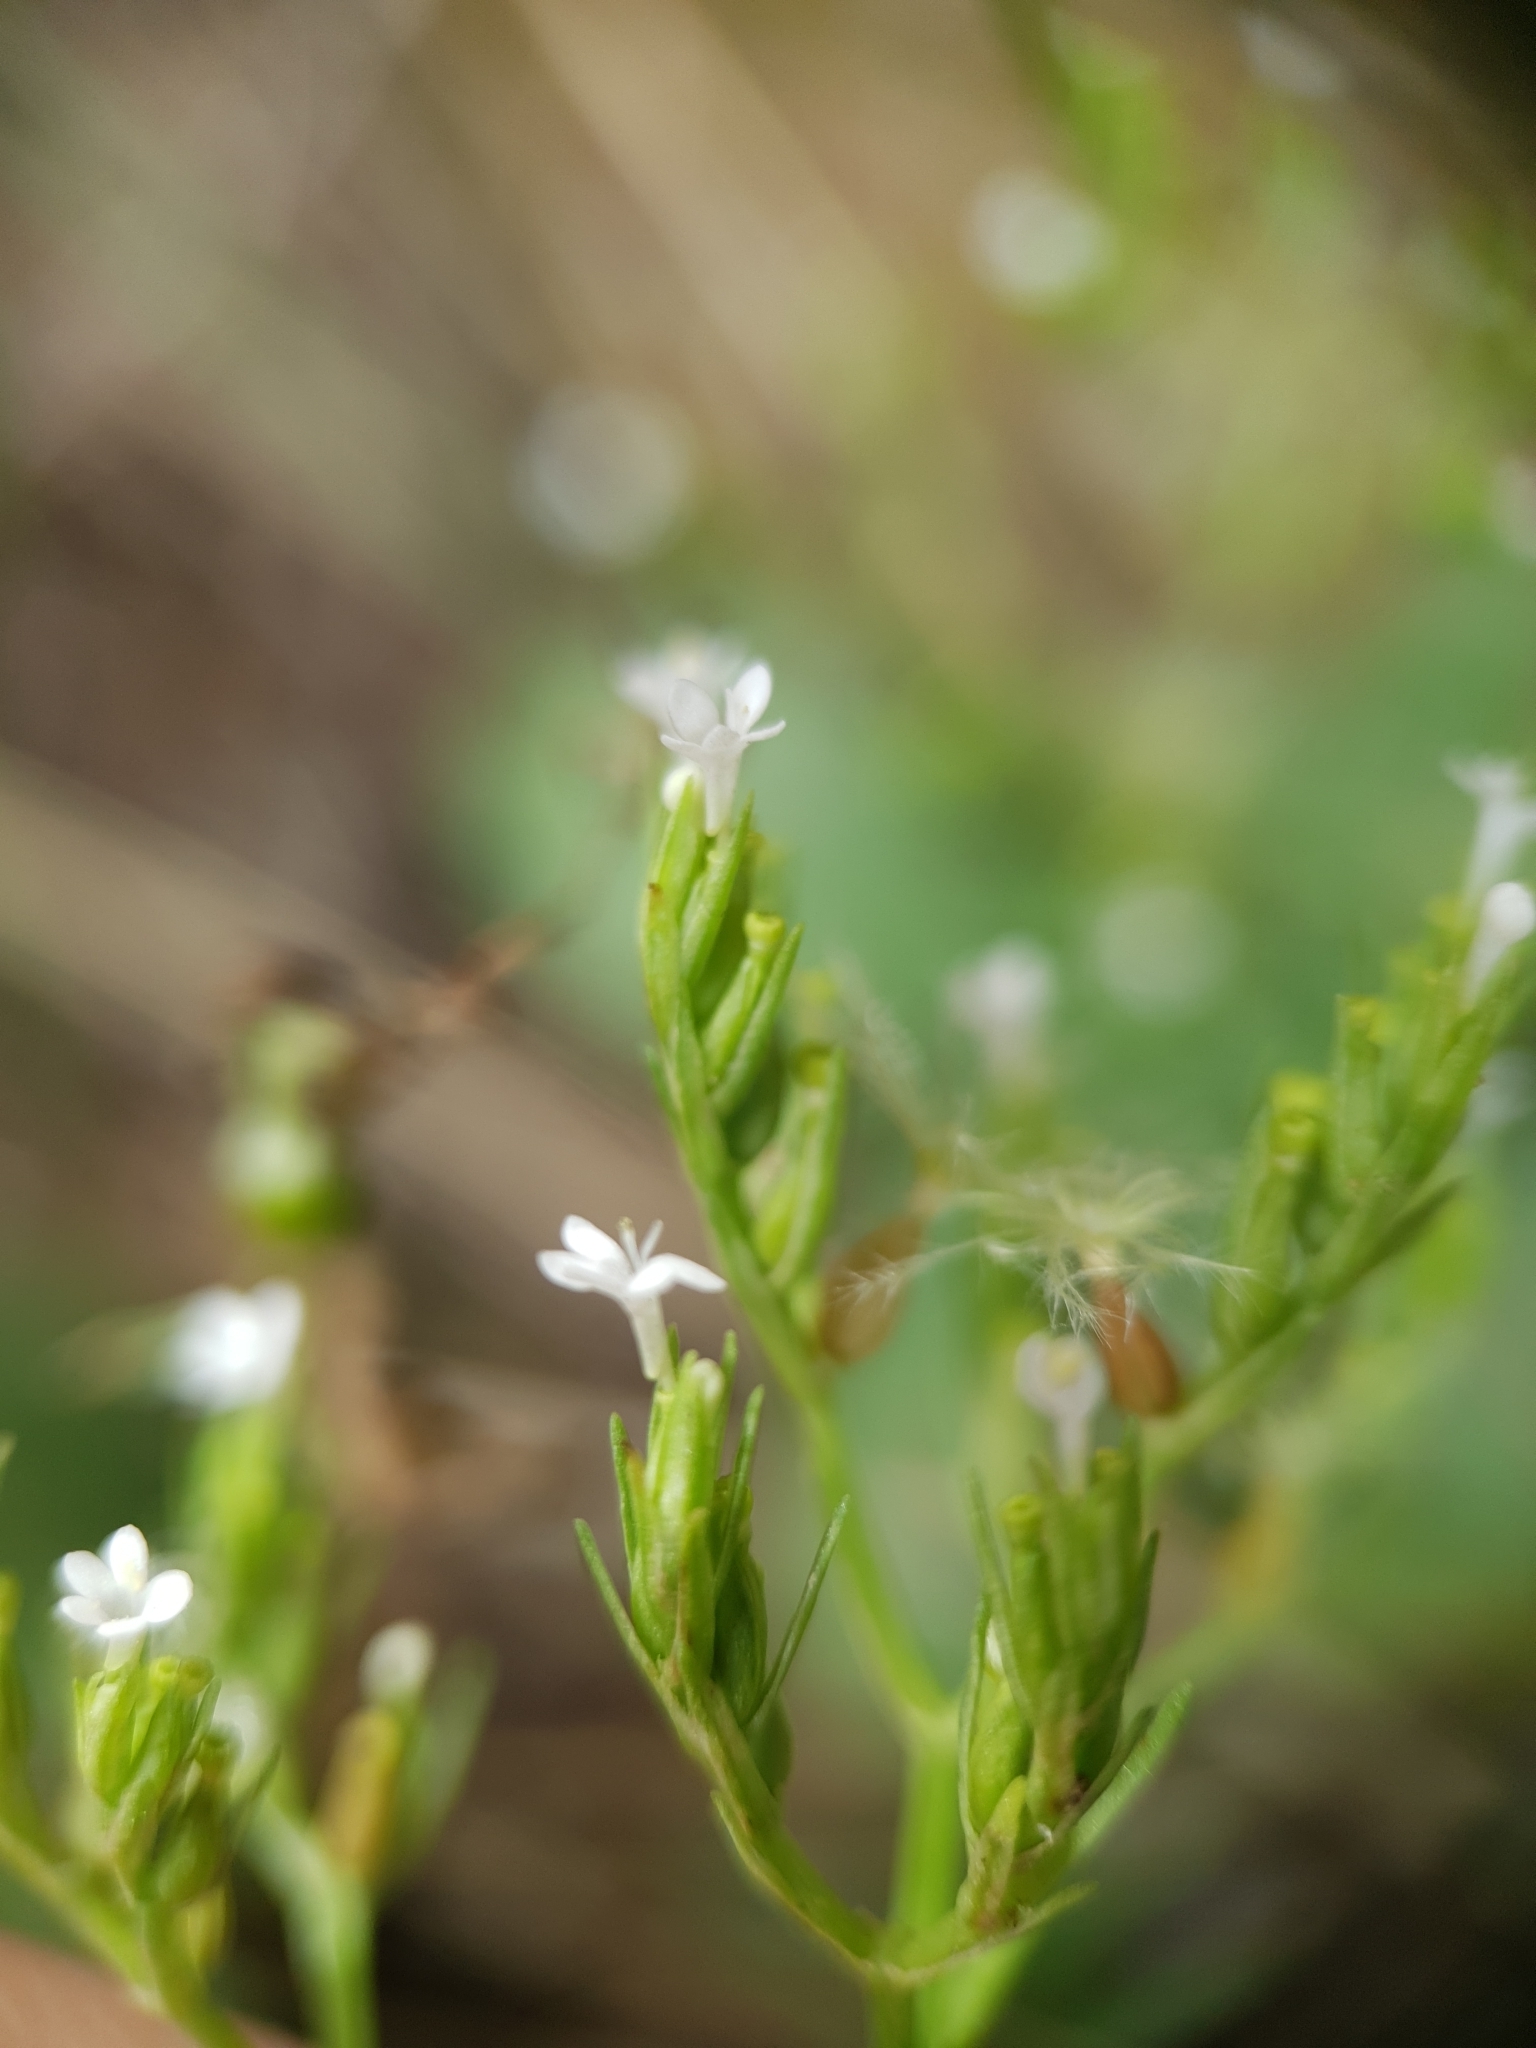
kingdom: Plantae
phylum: Tracheophyta
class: Magnoliopsida
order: Dipsacales
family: Caprifoliaceae
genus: Centranthus
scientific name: Centranthus calcitrapae
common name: Annual valerian
